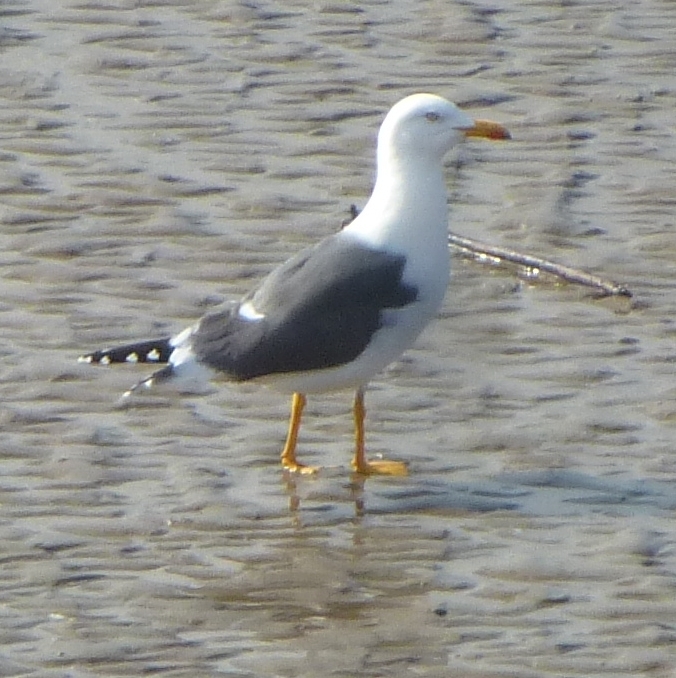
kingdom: Animalia
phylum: Chordata
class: Aves
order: Charadriiformes
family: Laridae
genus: Larus
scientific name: Larus fuscus
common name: Lesser black-backed gull
